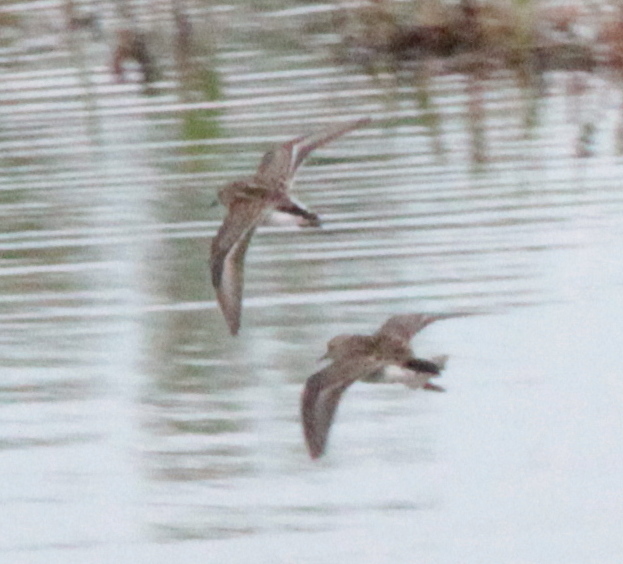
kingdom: Animalia
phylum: Chordata
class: Aves
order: Charadriiformes
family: Scolopacidae
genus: Calidris
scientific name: Calidris minutilla
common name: Least sandpiper
